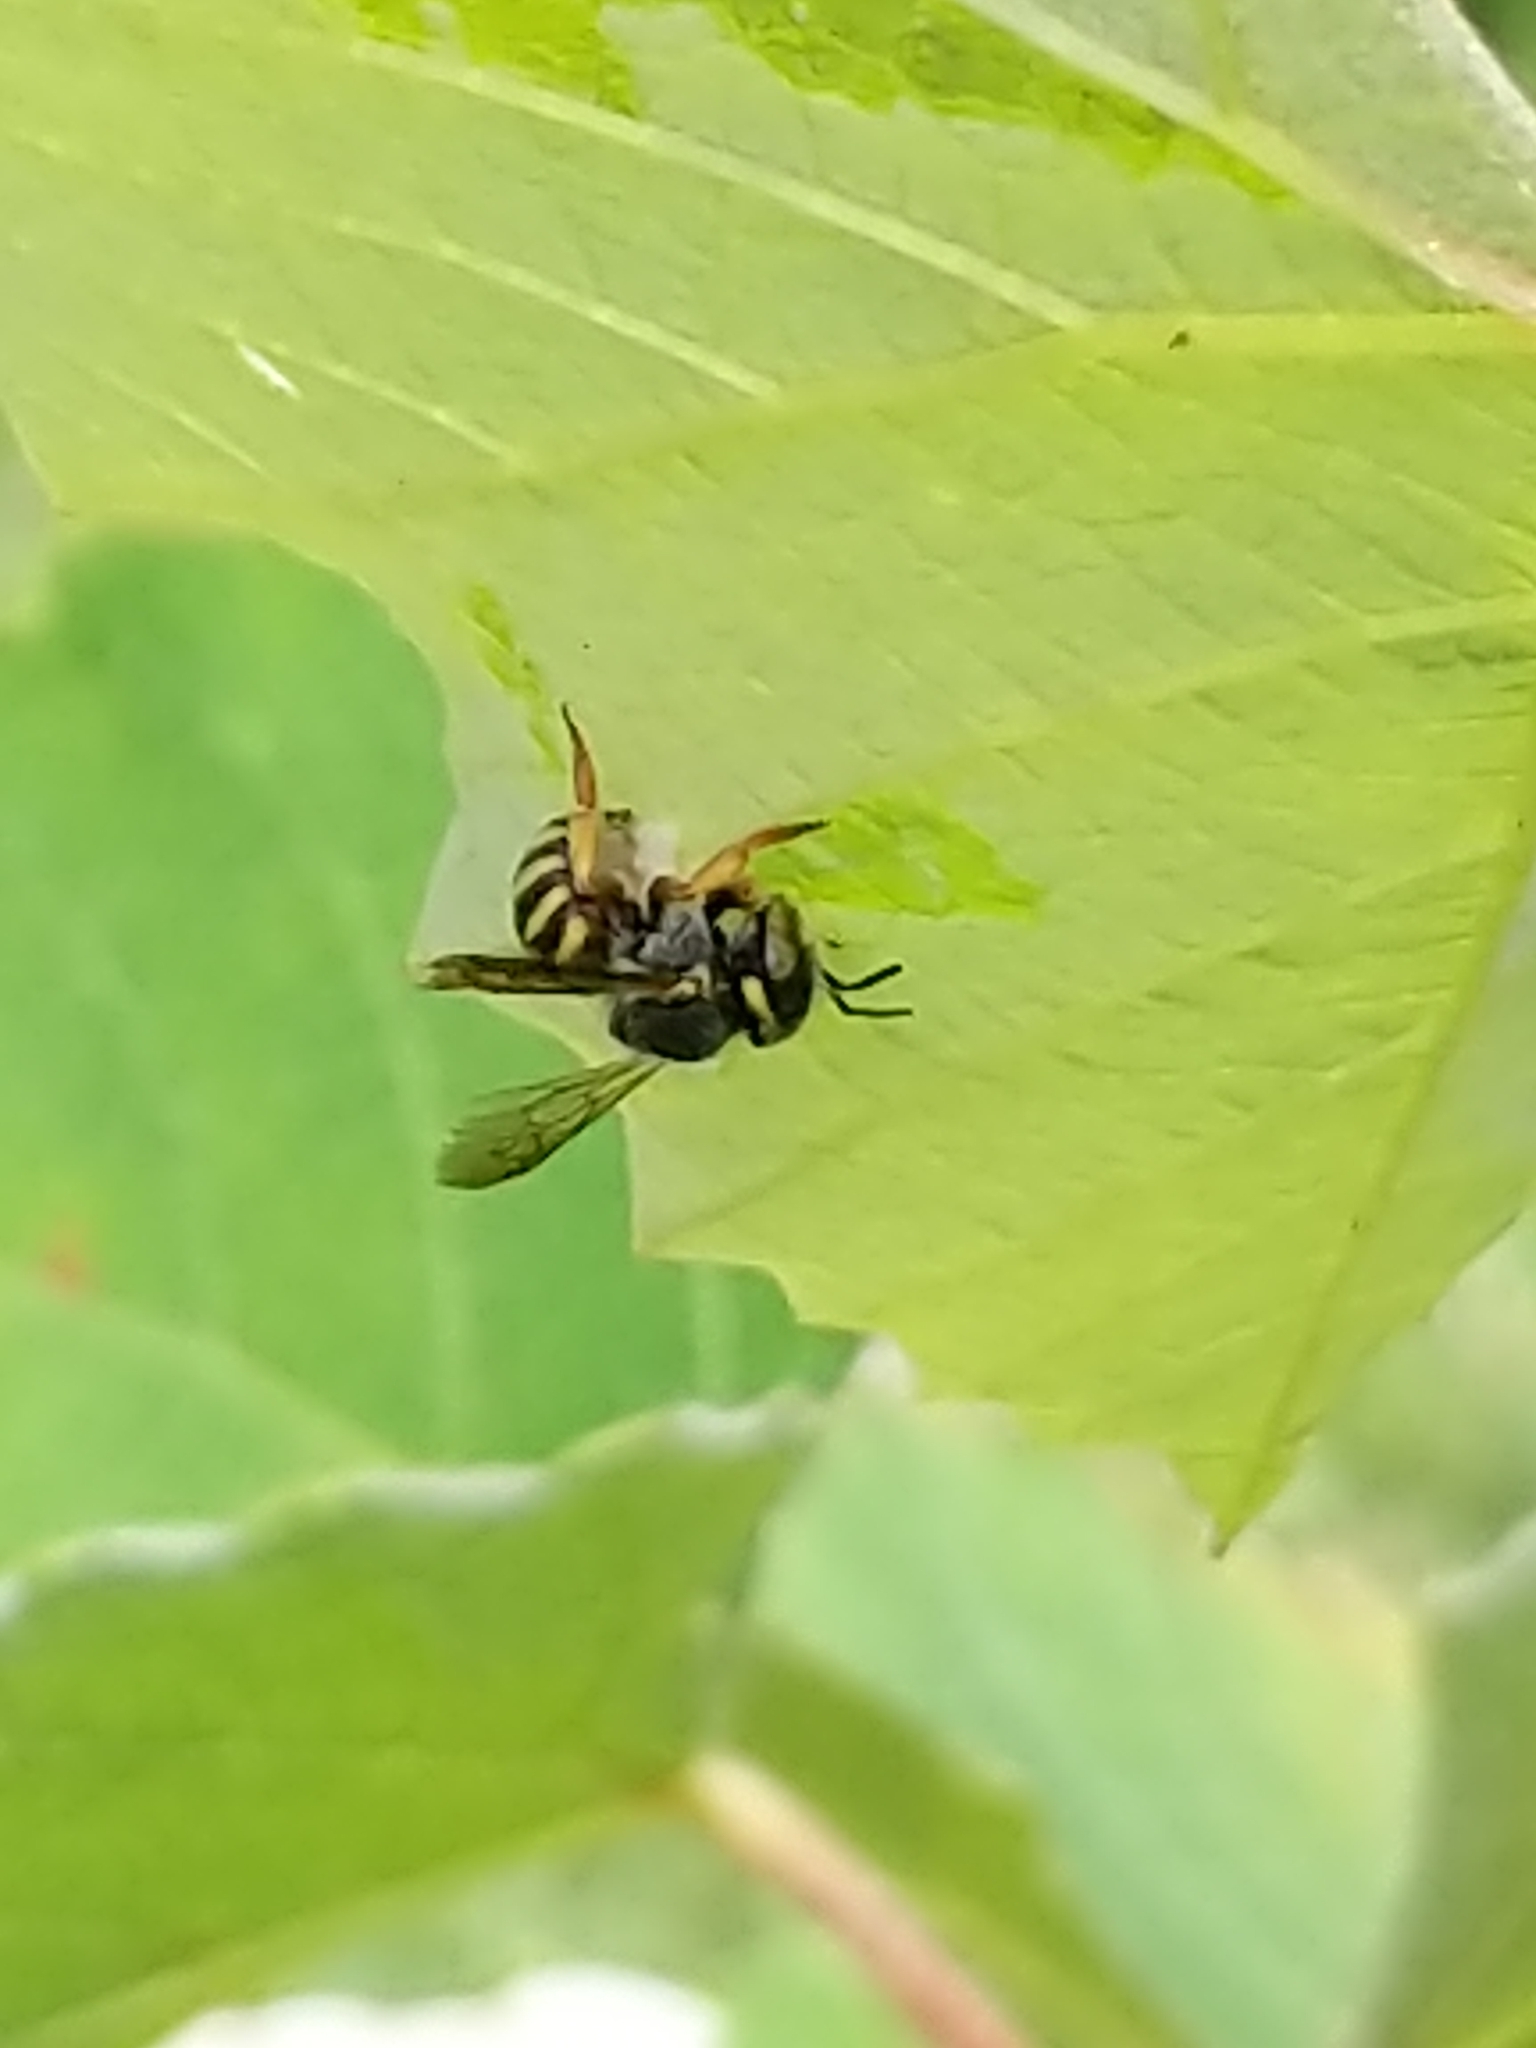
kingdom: Animalia
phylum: Arthropoda
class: Insecta
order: Hymenoptera
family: Megachilidae
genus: Anthidium
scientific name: Anthidium oblongatum
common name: Oblong wool carder bee
